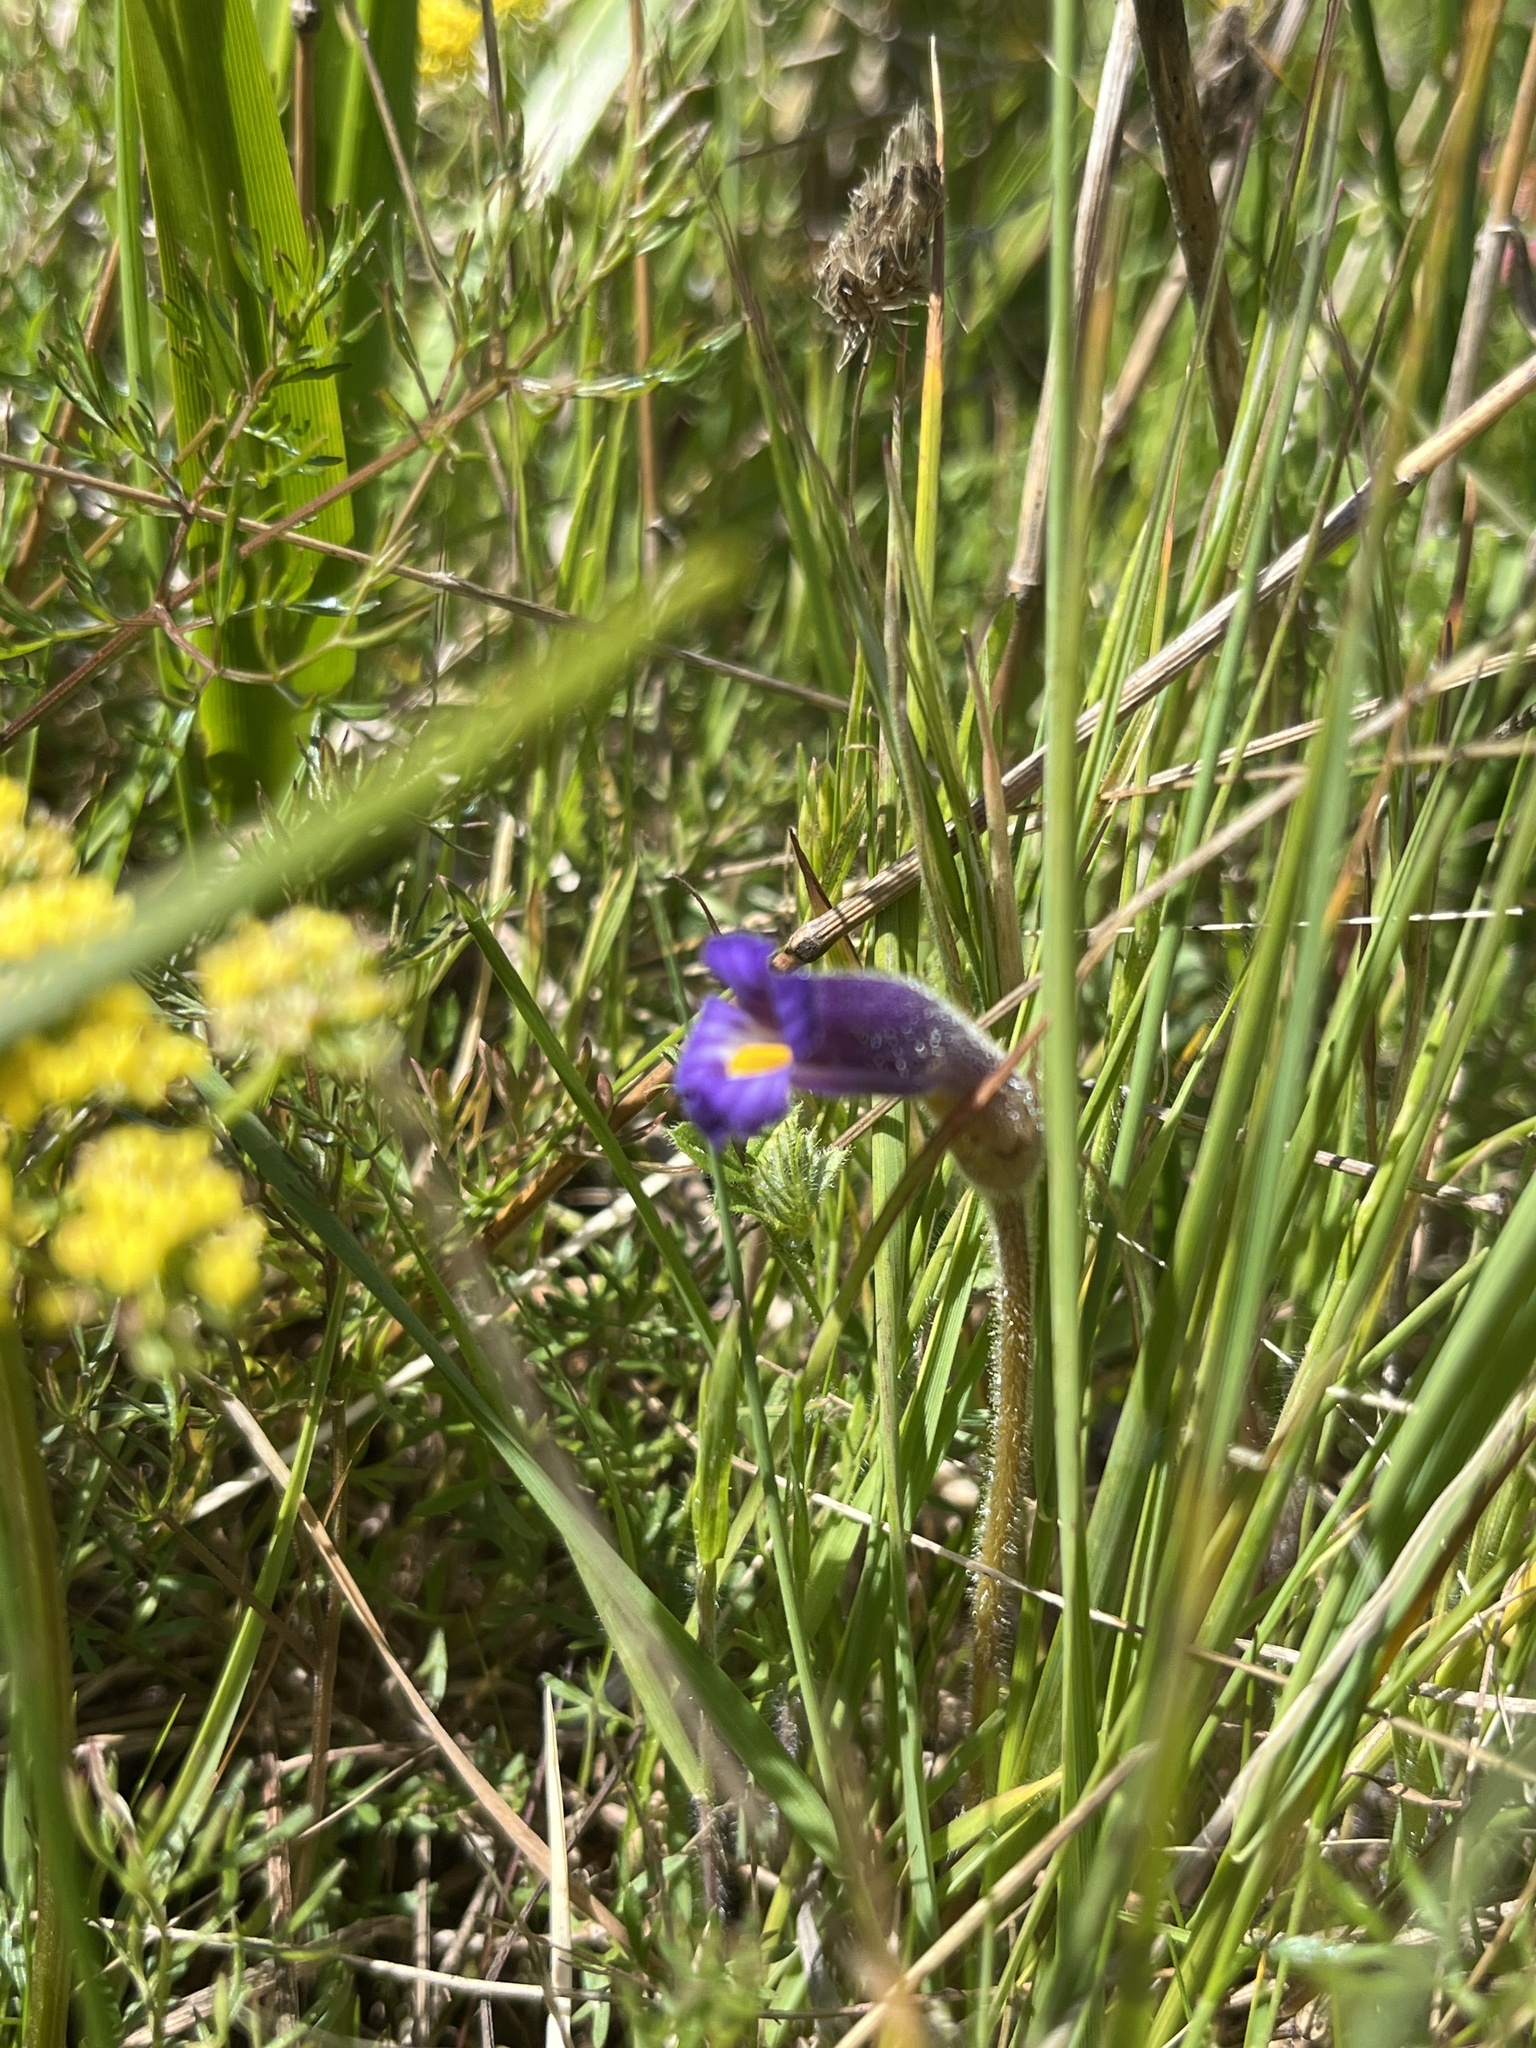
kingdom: Plantae
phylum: Tracheophyta
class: Magnoliopsida
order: Lamiales
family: Orobanchaceae
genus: Aphyllon
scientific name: Aphyllon uniflorum
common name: One-flowered broomrape
